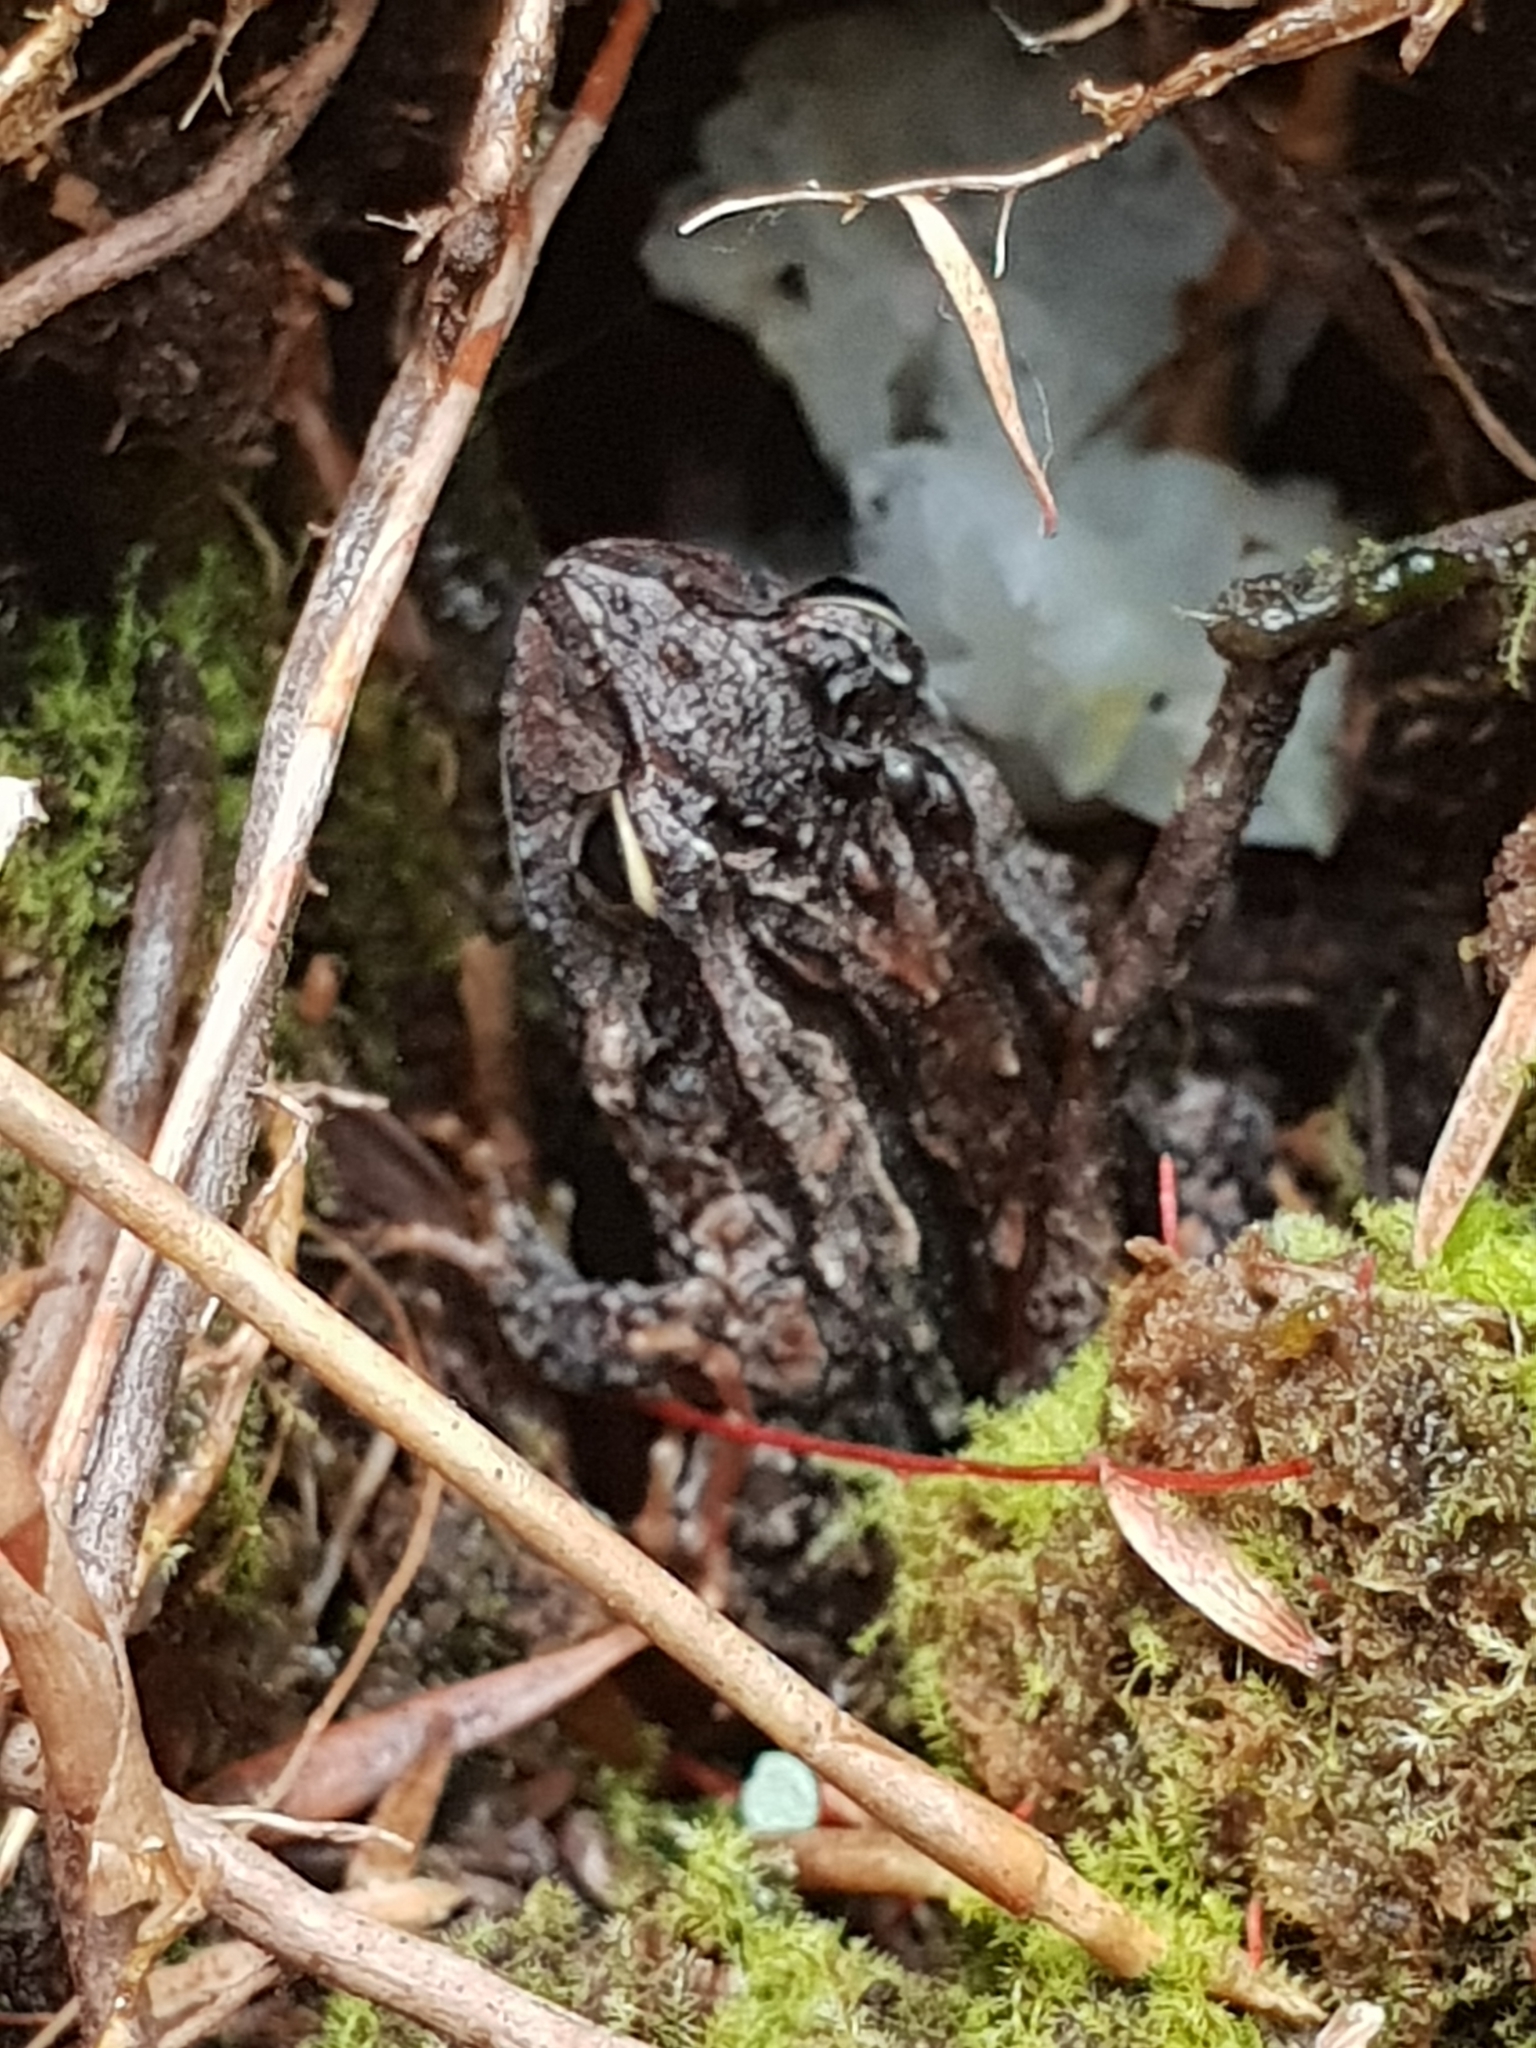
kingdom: Animalia
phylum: Chordata
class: Amphibia
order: Anura
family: Myobatrachidae
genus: Crinia
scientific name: Crinia glauerti
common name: Glauert’s froglet
